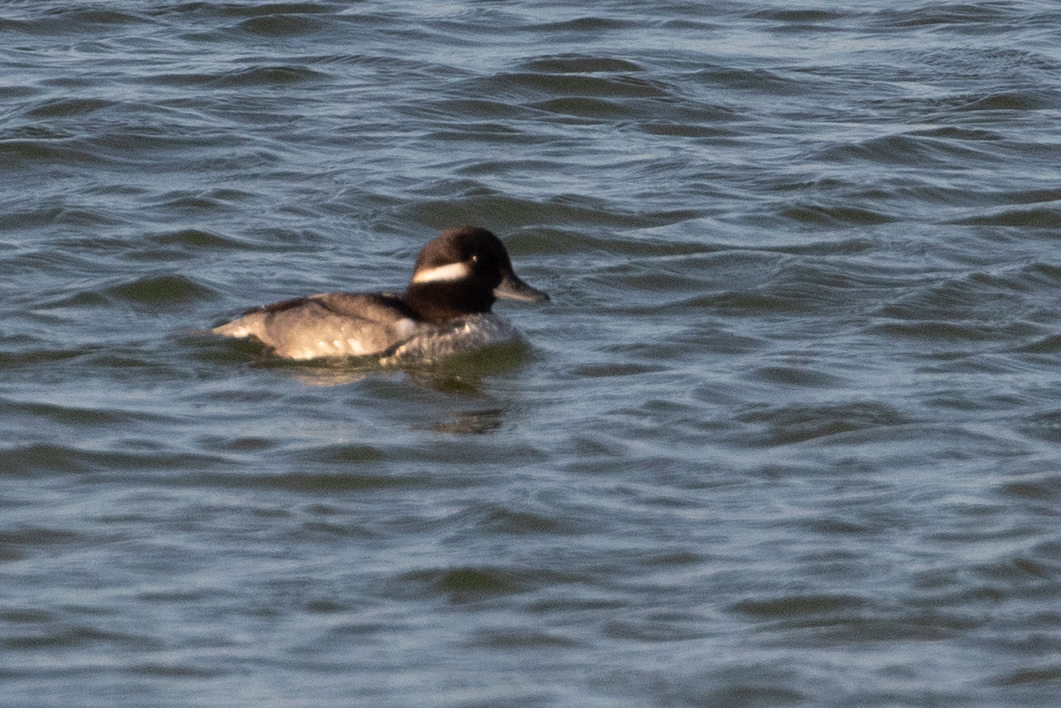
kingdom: Animalia
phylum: Chordata
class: Aves
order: Anseriformes
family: Anatidae
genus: Bucephala
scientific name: Bucephala albeola
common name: Bufflehead
